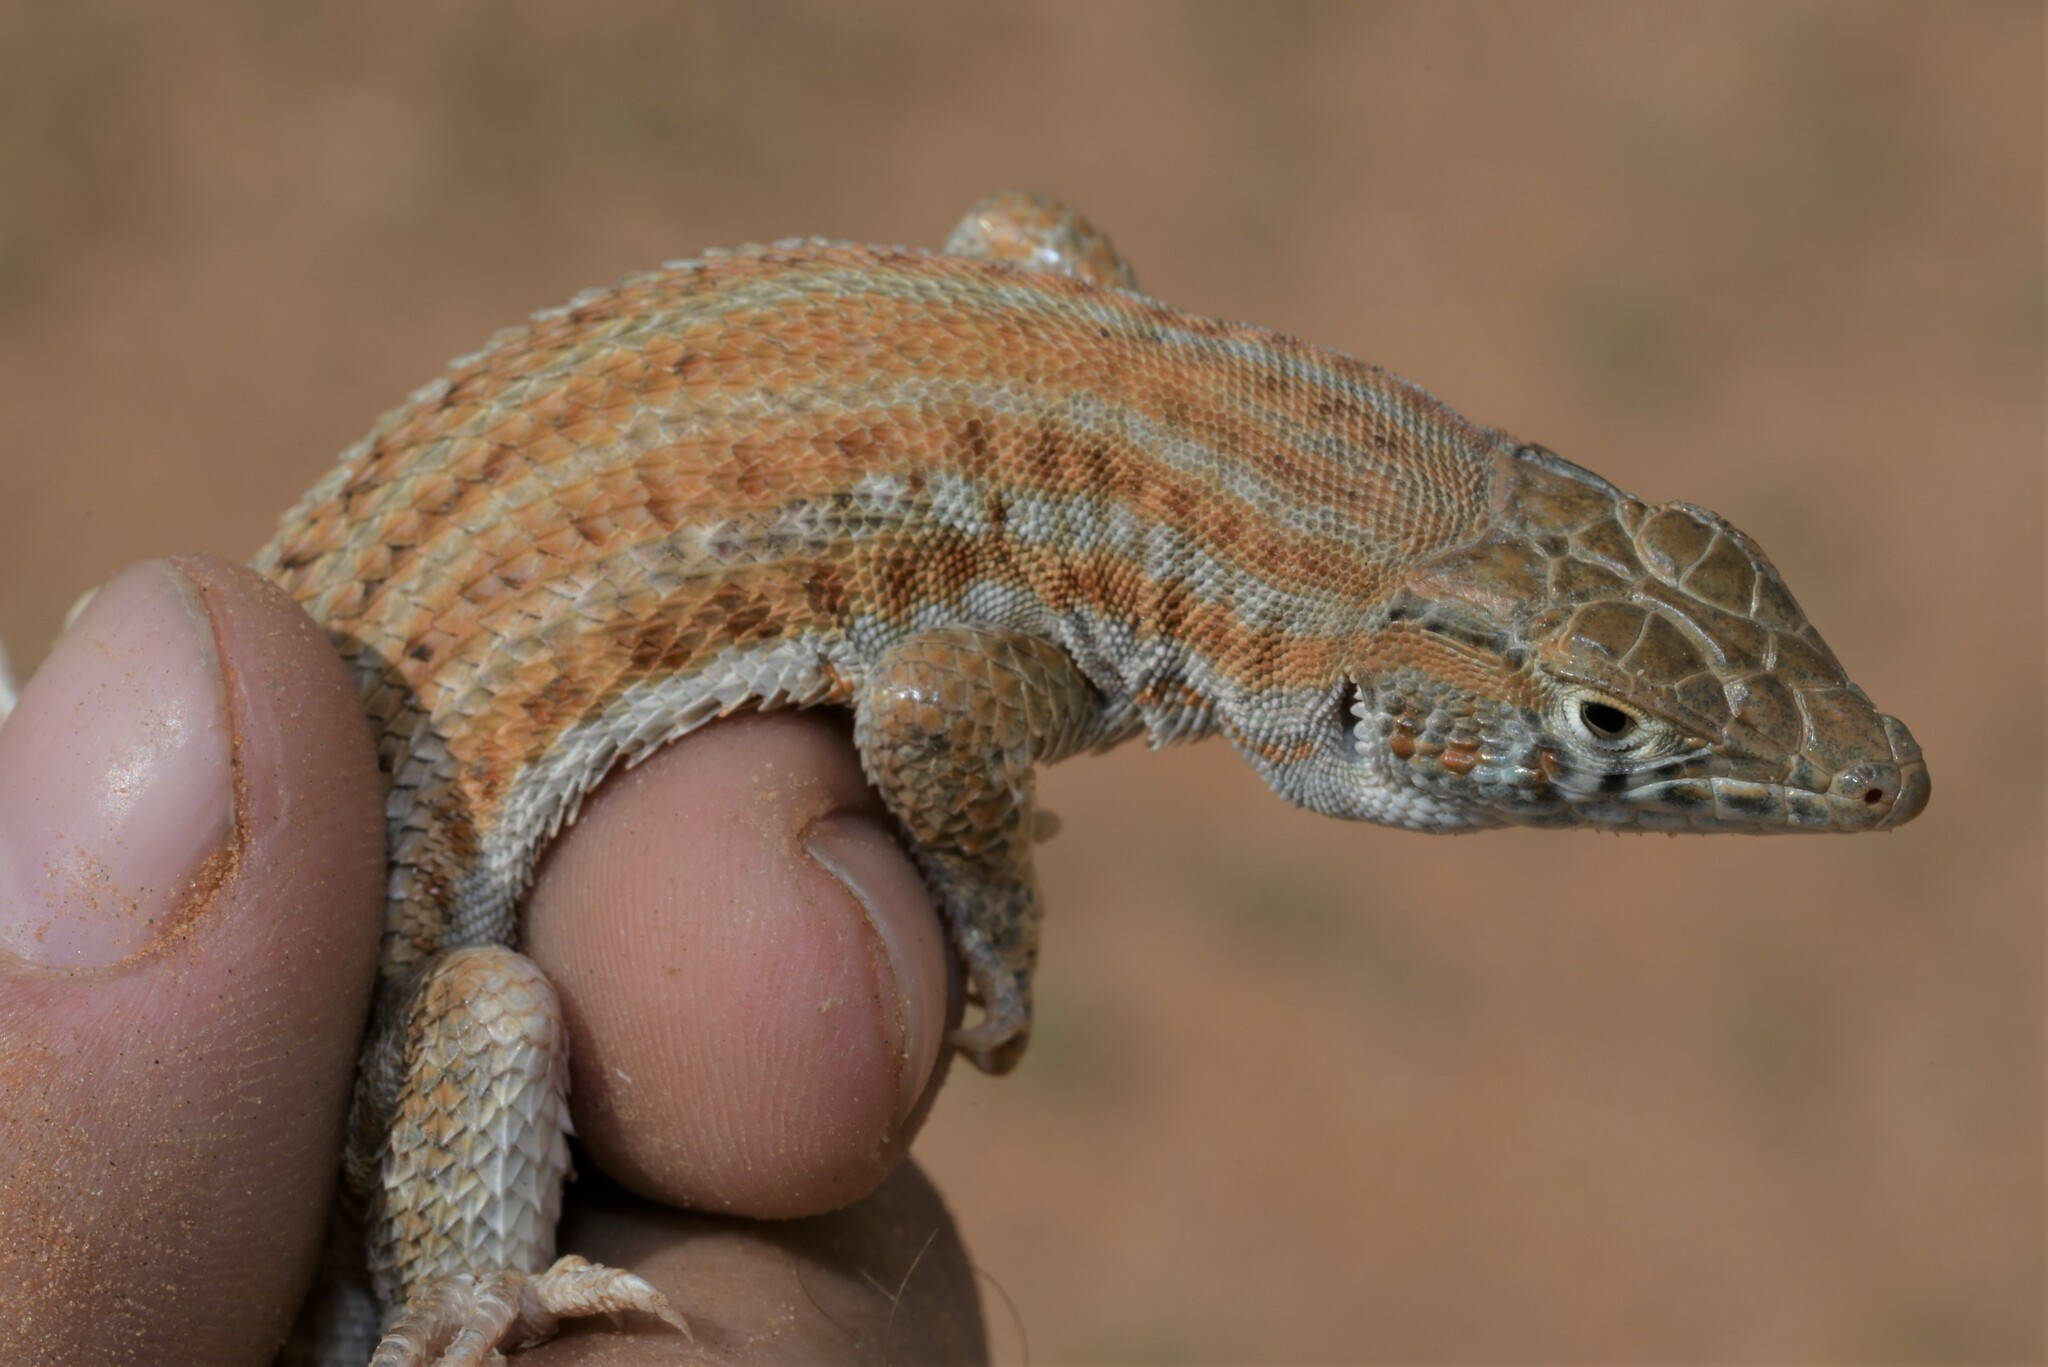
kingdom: Animalia
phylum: Chordata
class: Squamata
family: Lacertidae
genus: Acanthodactylus
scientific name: Acanthodactylus boskianus
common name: Bosc’s fringe-toed lizard
